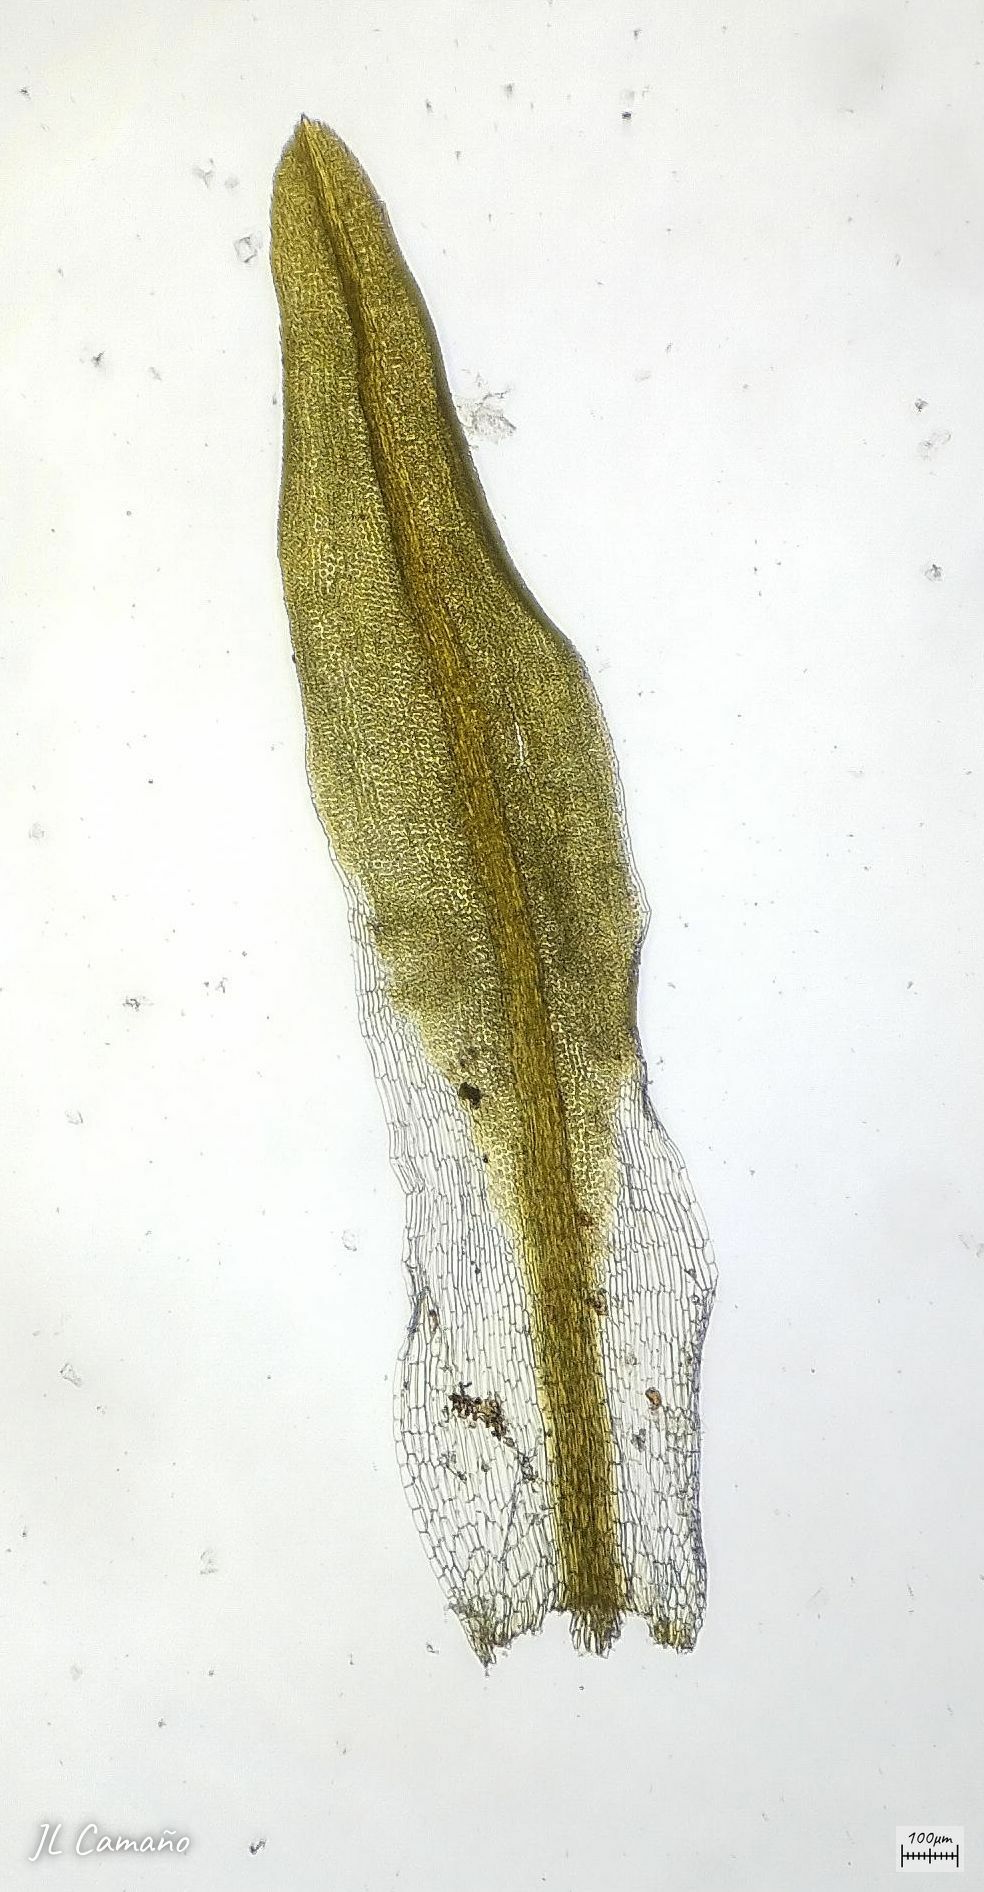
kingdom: Plantae
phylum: Bryophyta
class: Bryopsida
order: Pottiales
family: Pottiaceae
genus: Tortella
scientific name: Tortella flavovirens
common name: Arisaig crisp-moss
